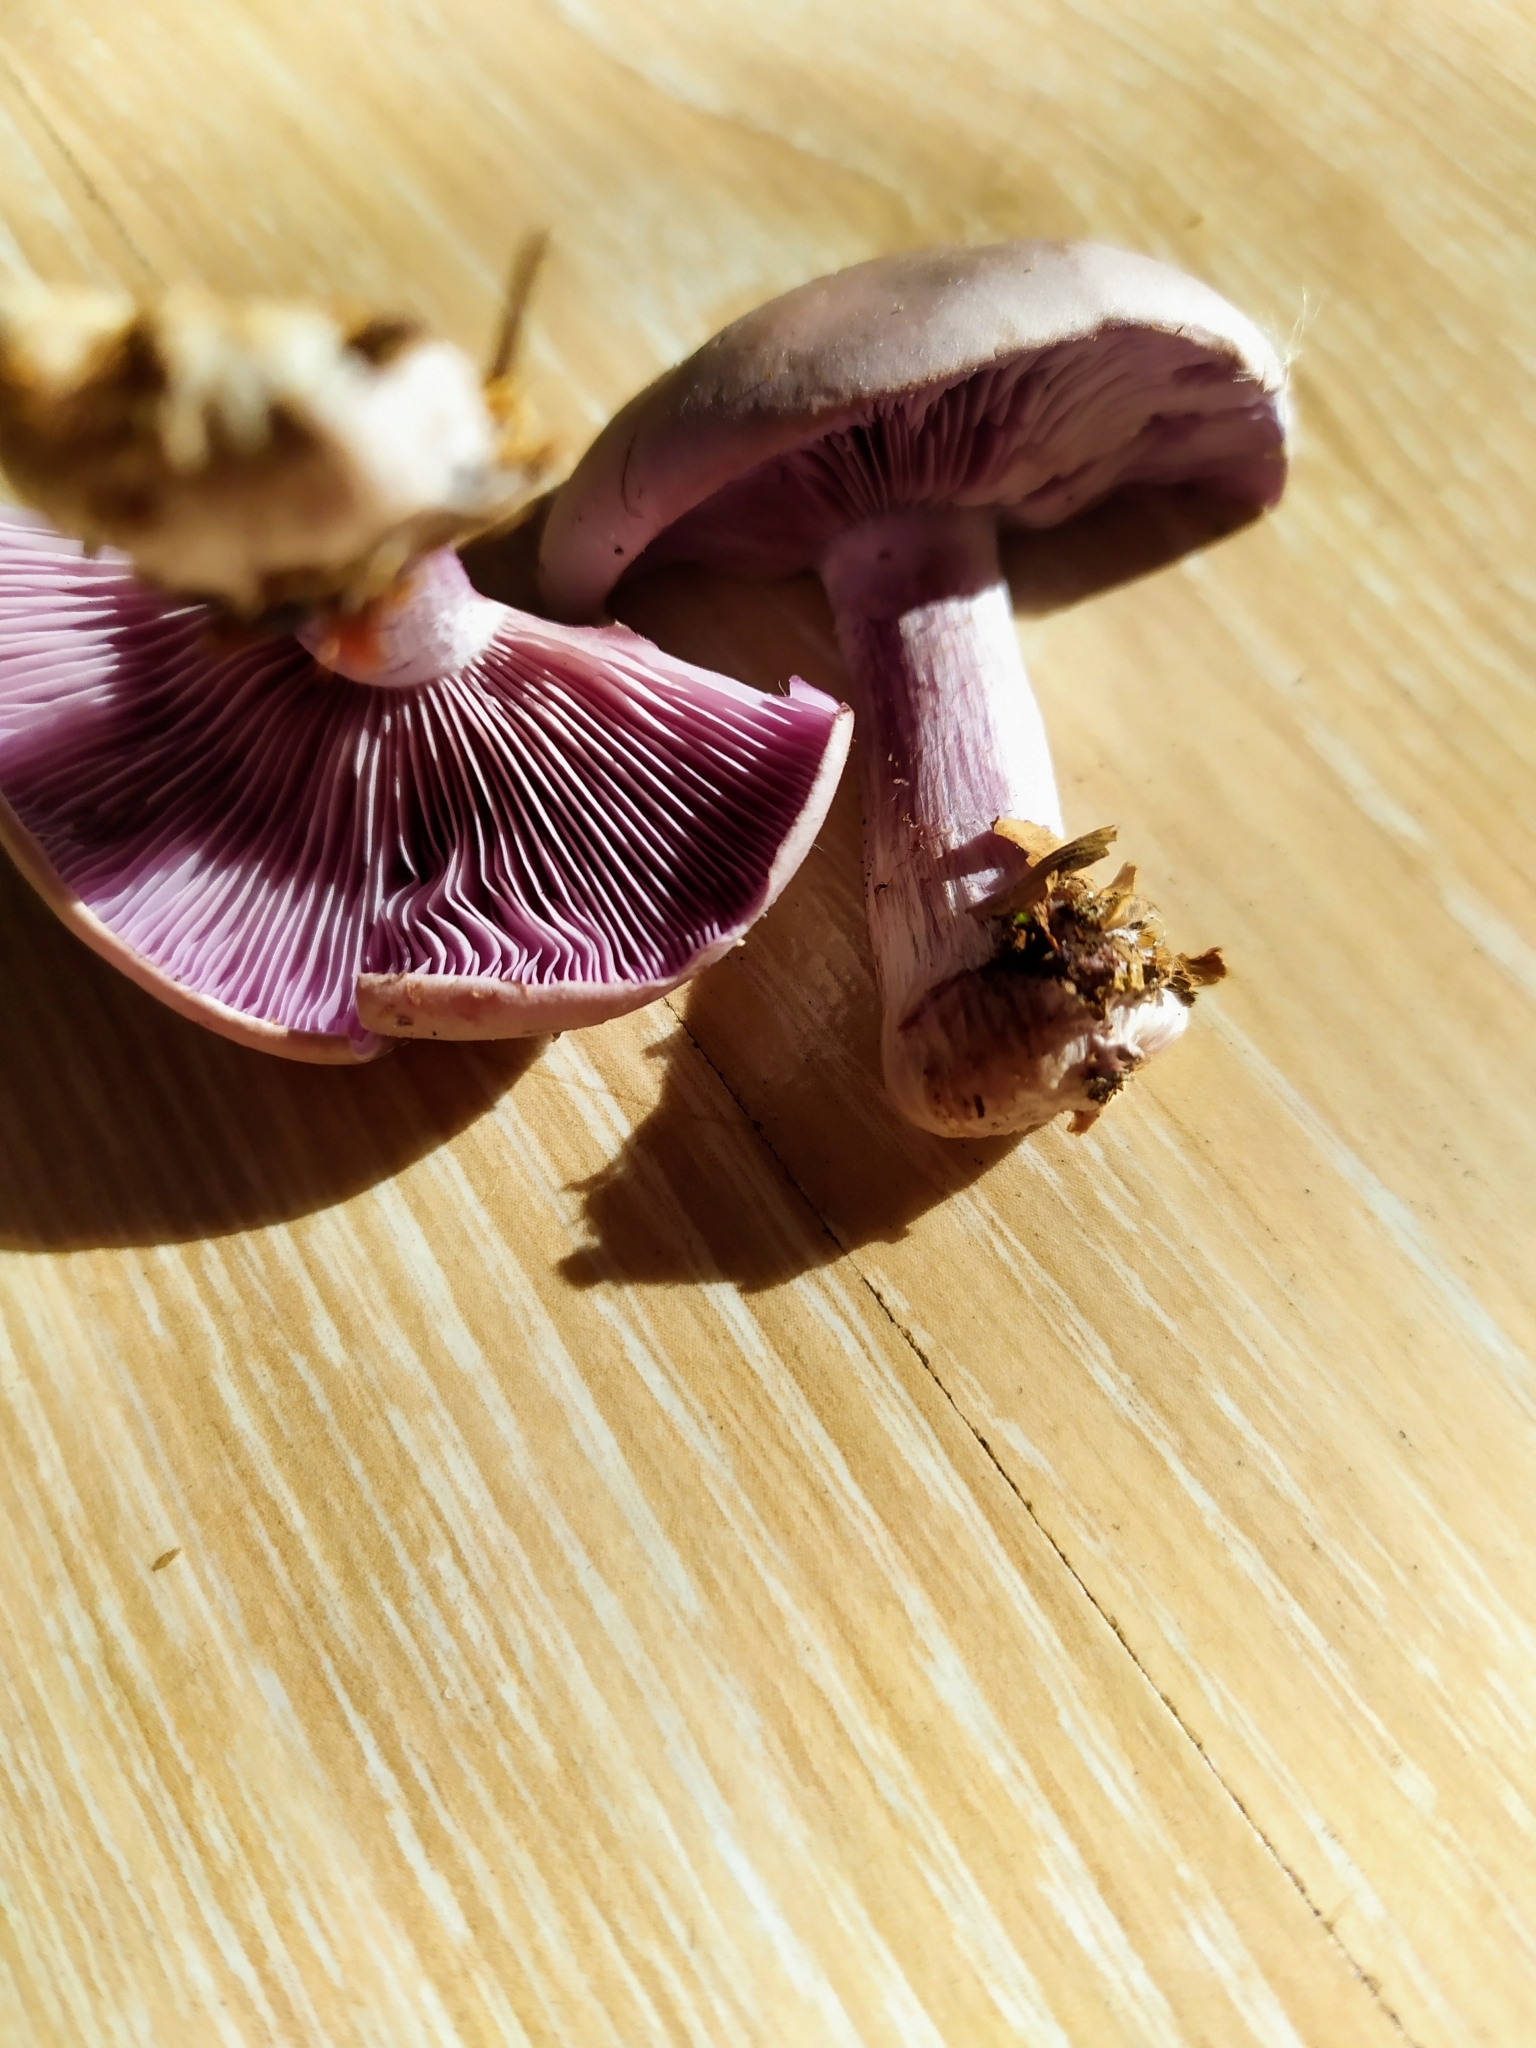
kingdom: Fungi
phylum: Basidiomycota
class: Agaricomycetes
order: Agaricales
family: Tricholomataceae
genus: Collybia
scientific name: Collybia
